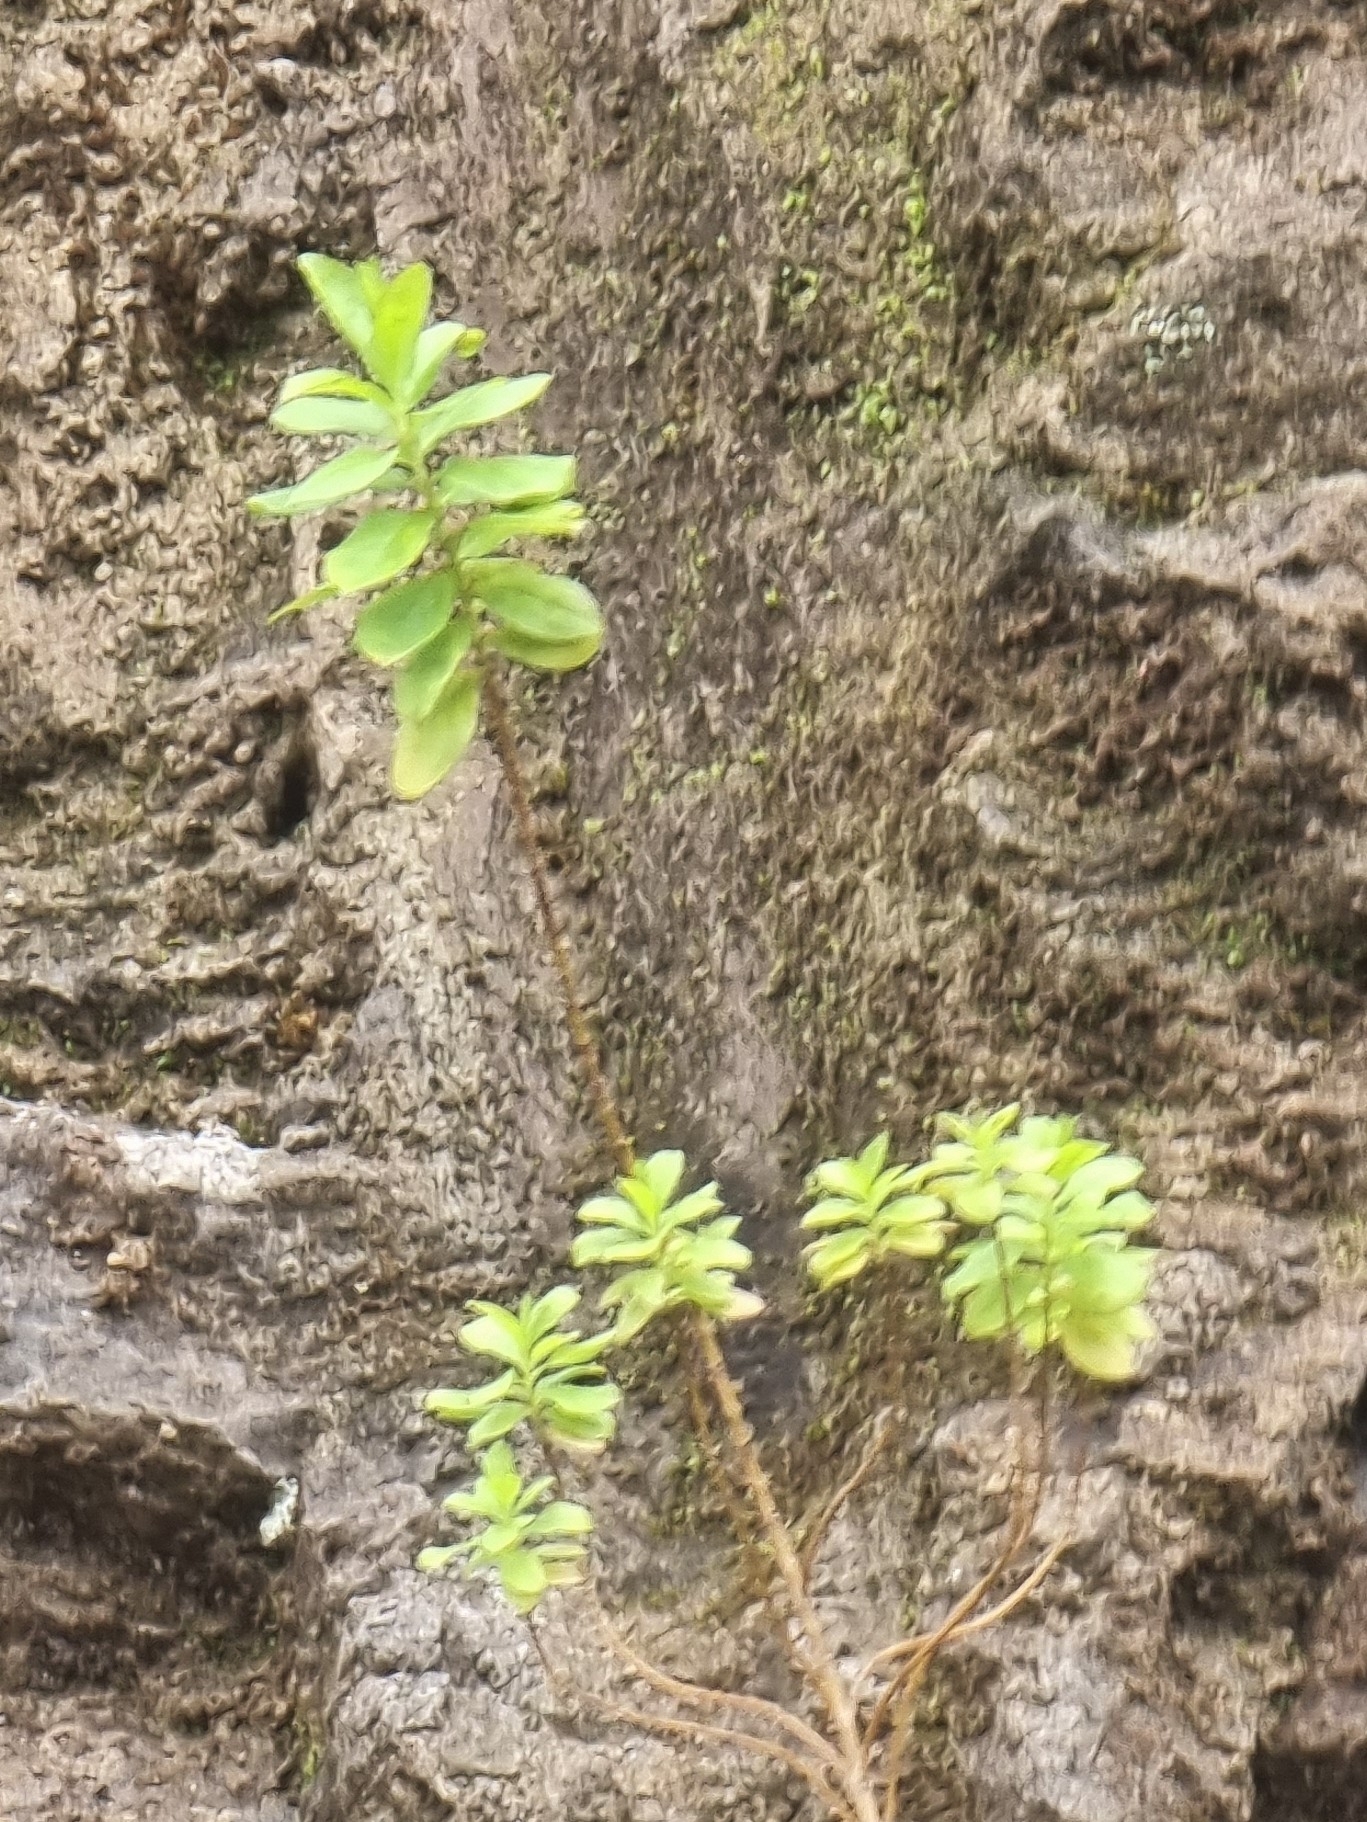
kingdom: Plantae
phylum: Tracheophyta
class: Magnoliopsida
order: Malpighiales
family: Hypericaceae
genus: Hypericum
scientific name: Hypericum glandulosum
